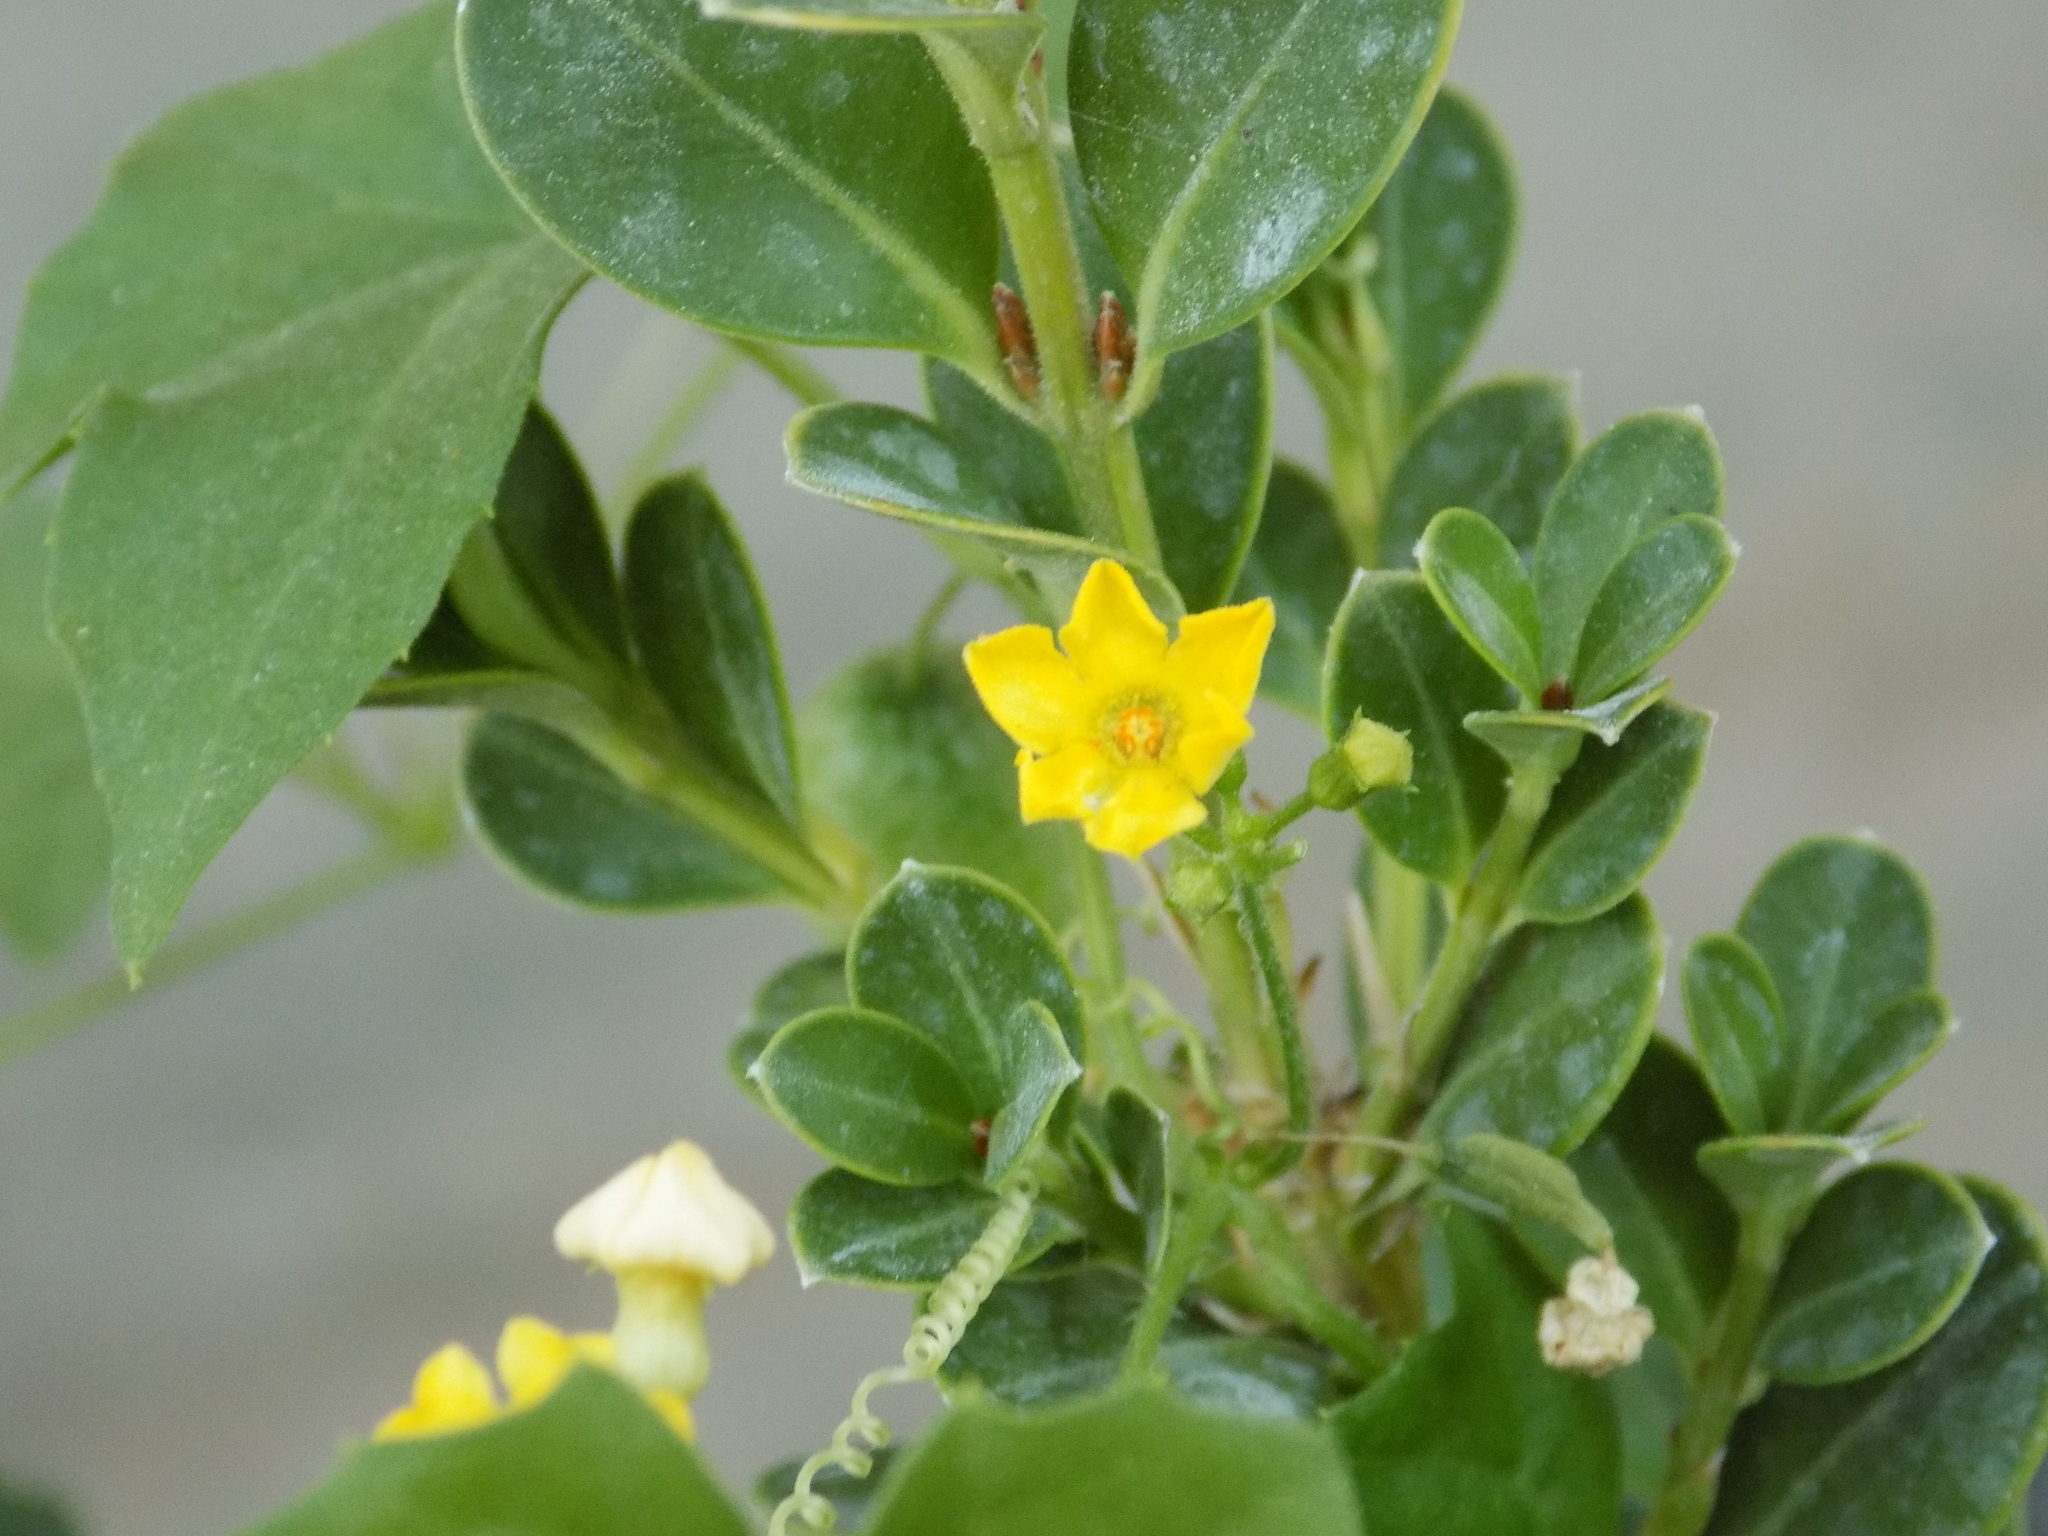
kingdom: Plantae
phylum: Tracheophyta
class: Magnoliopsida
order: Cucurbitales
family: Cucurbitaceae
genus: Melothria
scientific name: Melothria pendula
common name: Creeping-cucumber
